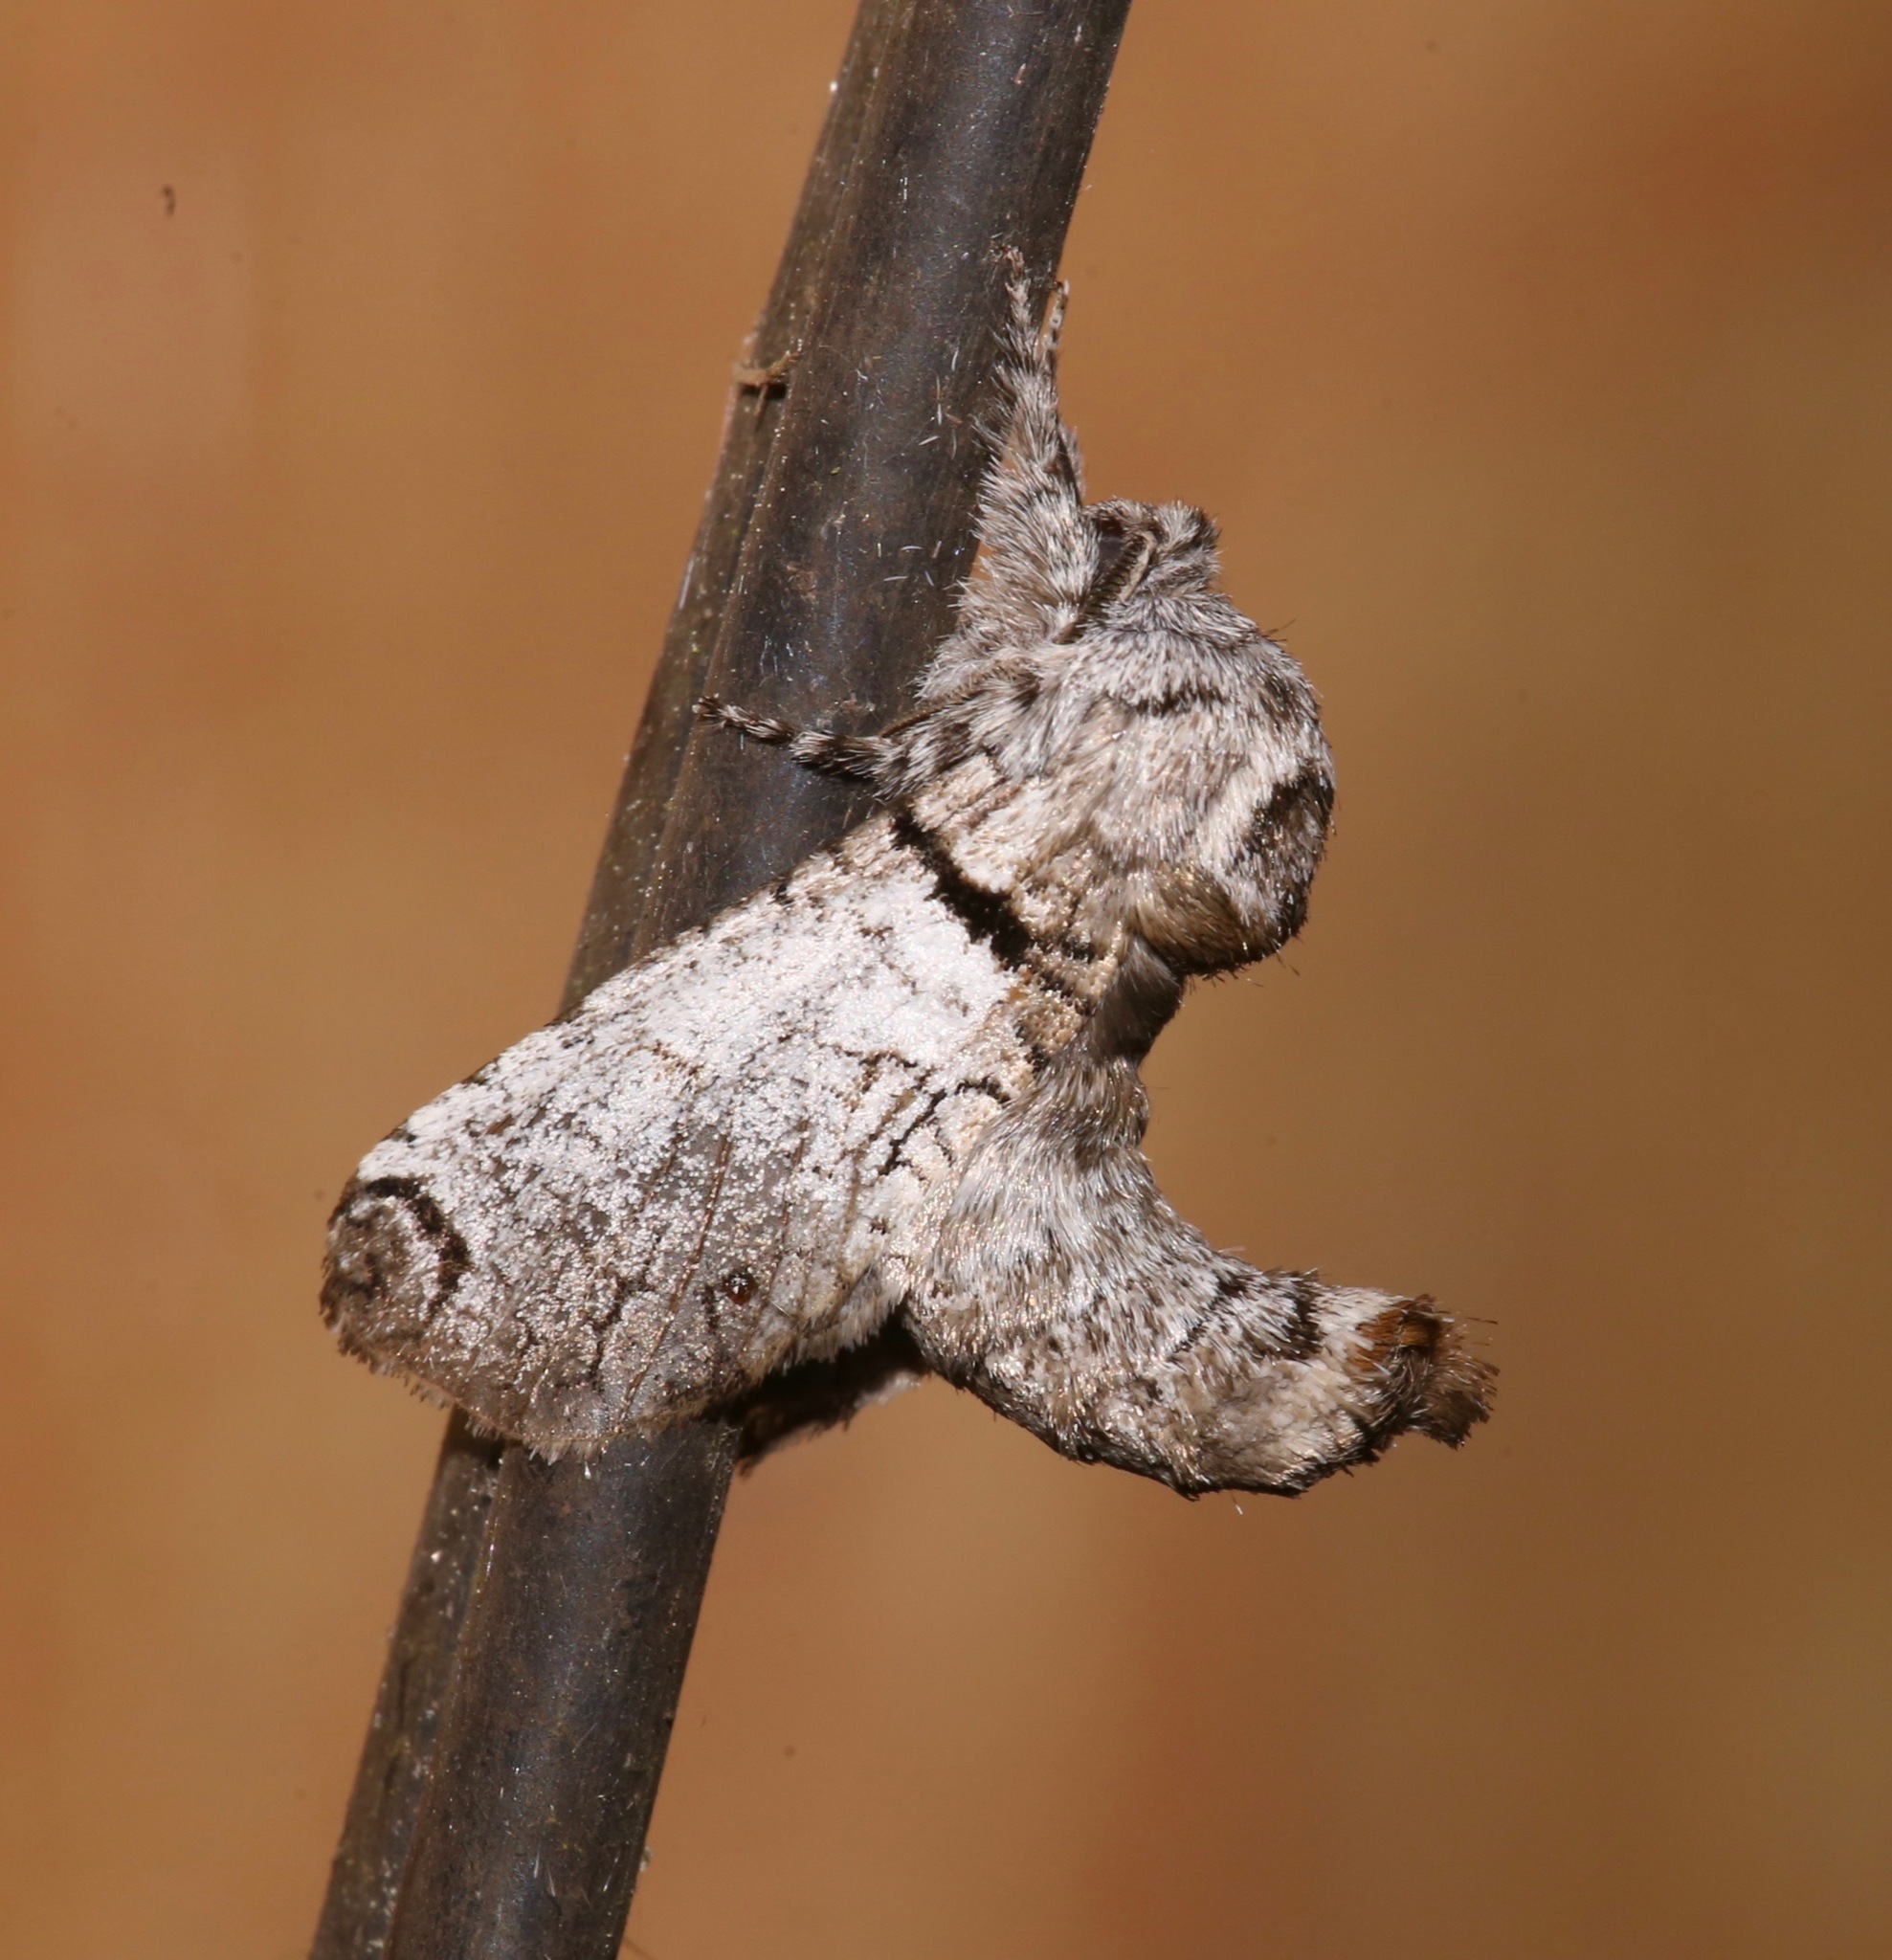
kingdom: Animalia
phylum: Arthropoda
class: Insecta
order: Lepidoptera
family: Cossidae
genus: Inguromorpha
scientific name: Inguromorpha basalis
